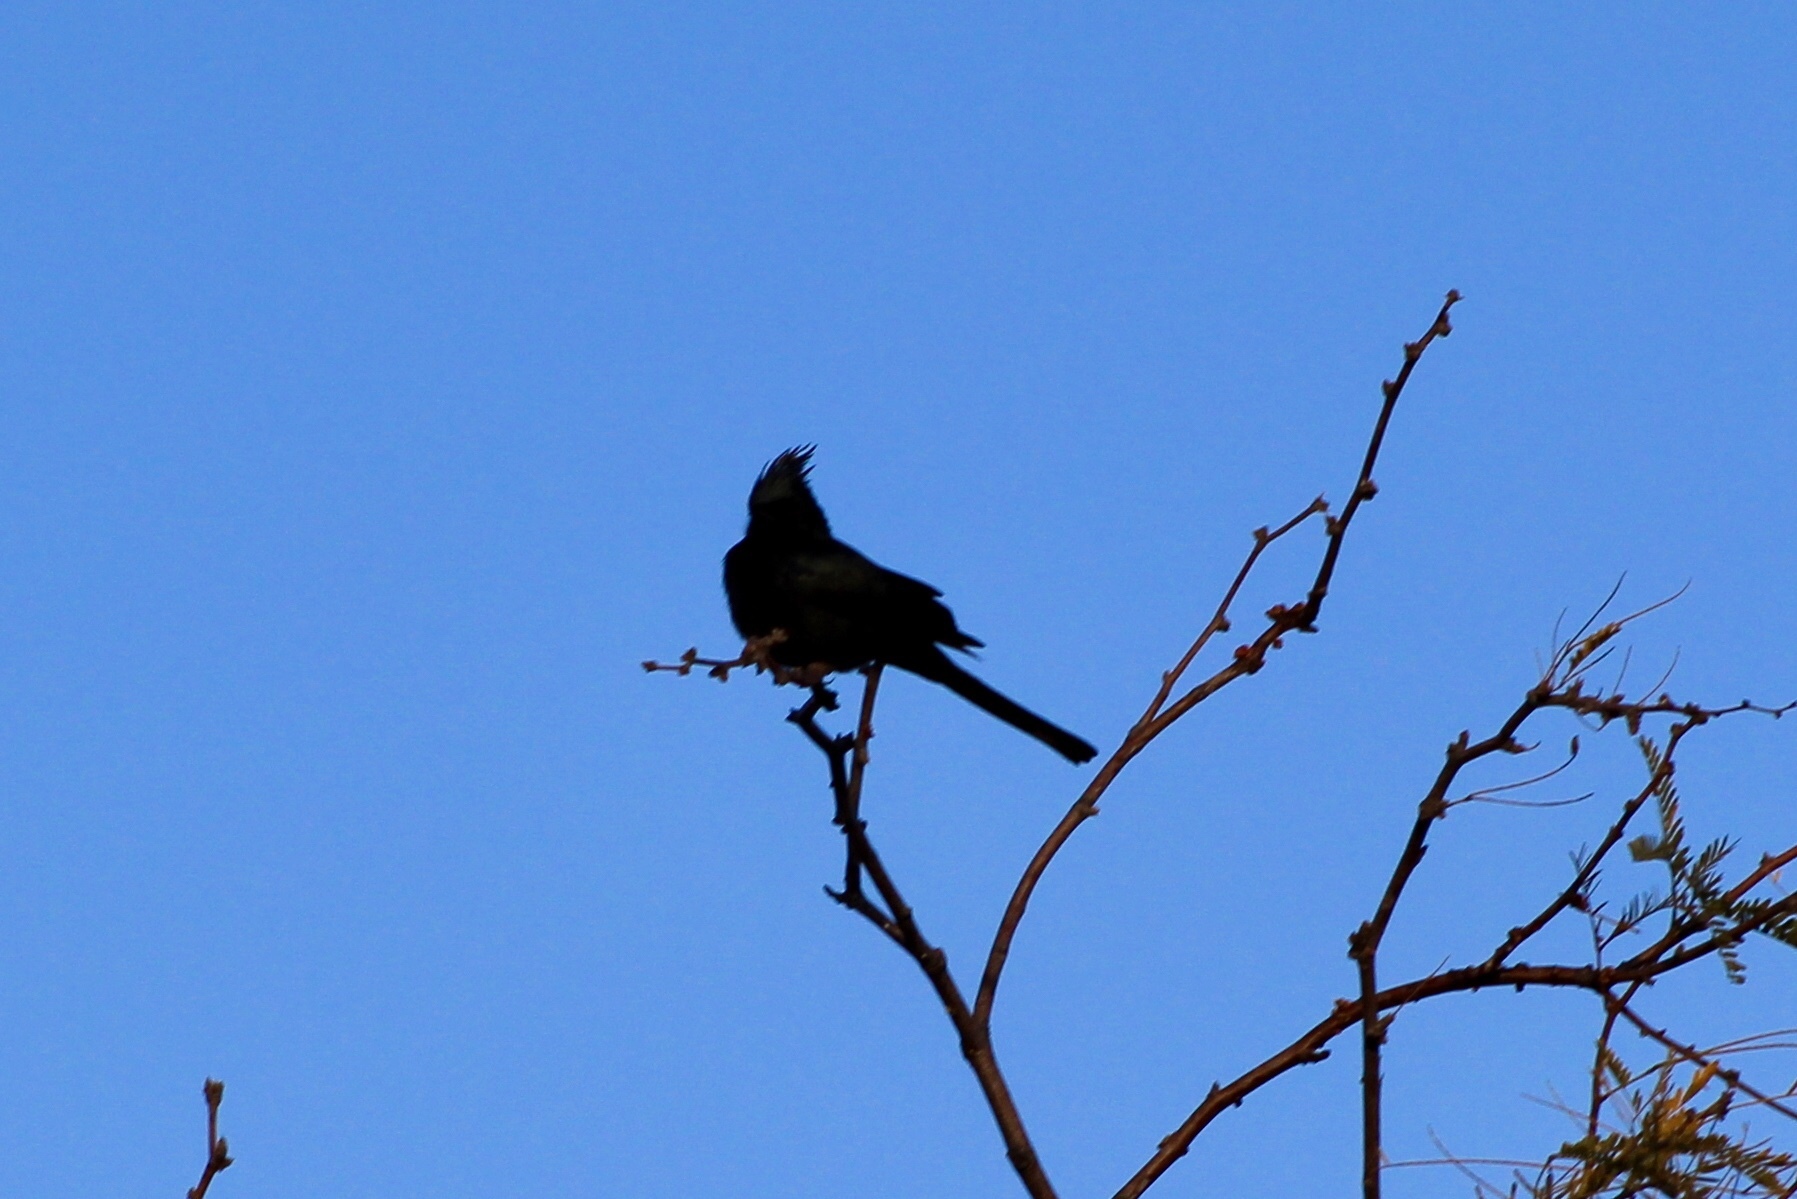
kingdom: Animalia
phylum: Chordata
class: Aves
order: Passeriformes
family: Ptilogonatidae
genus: Phainopepla
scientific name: Phainopepla nitens
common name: Phainopepla
